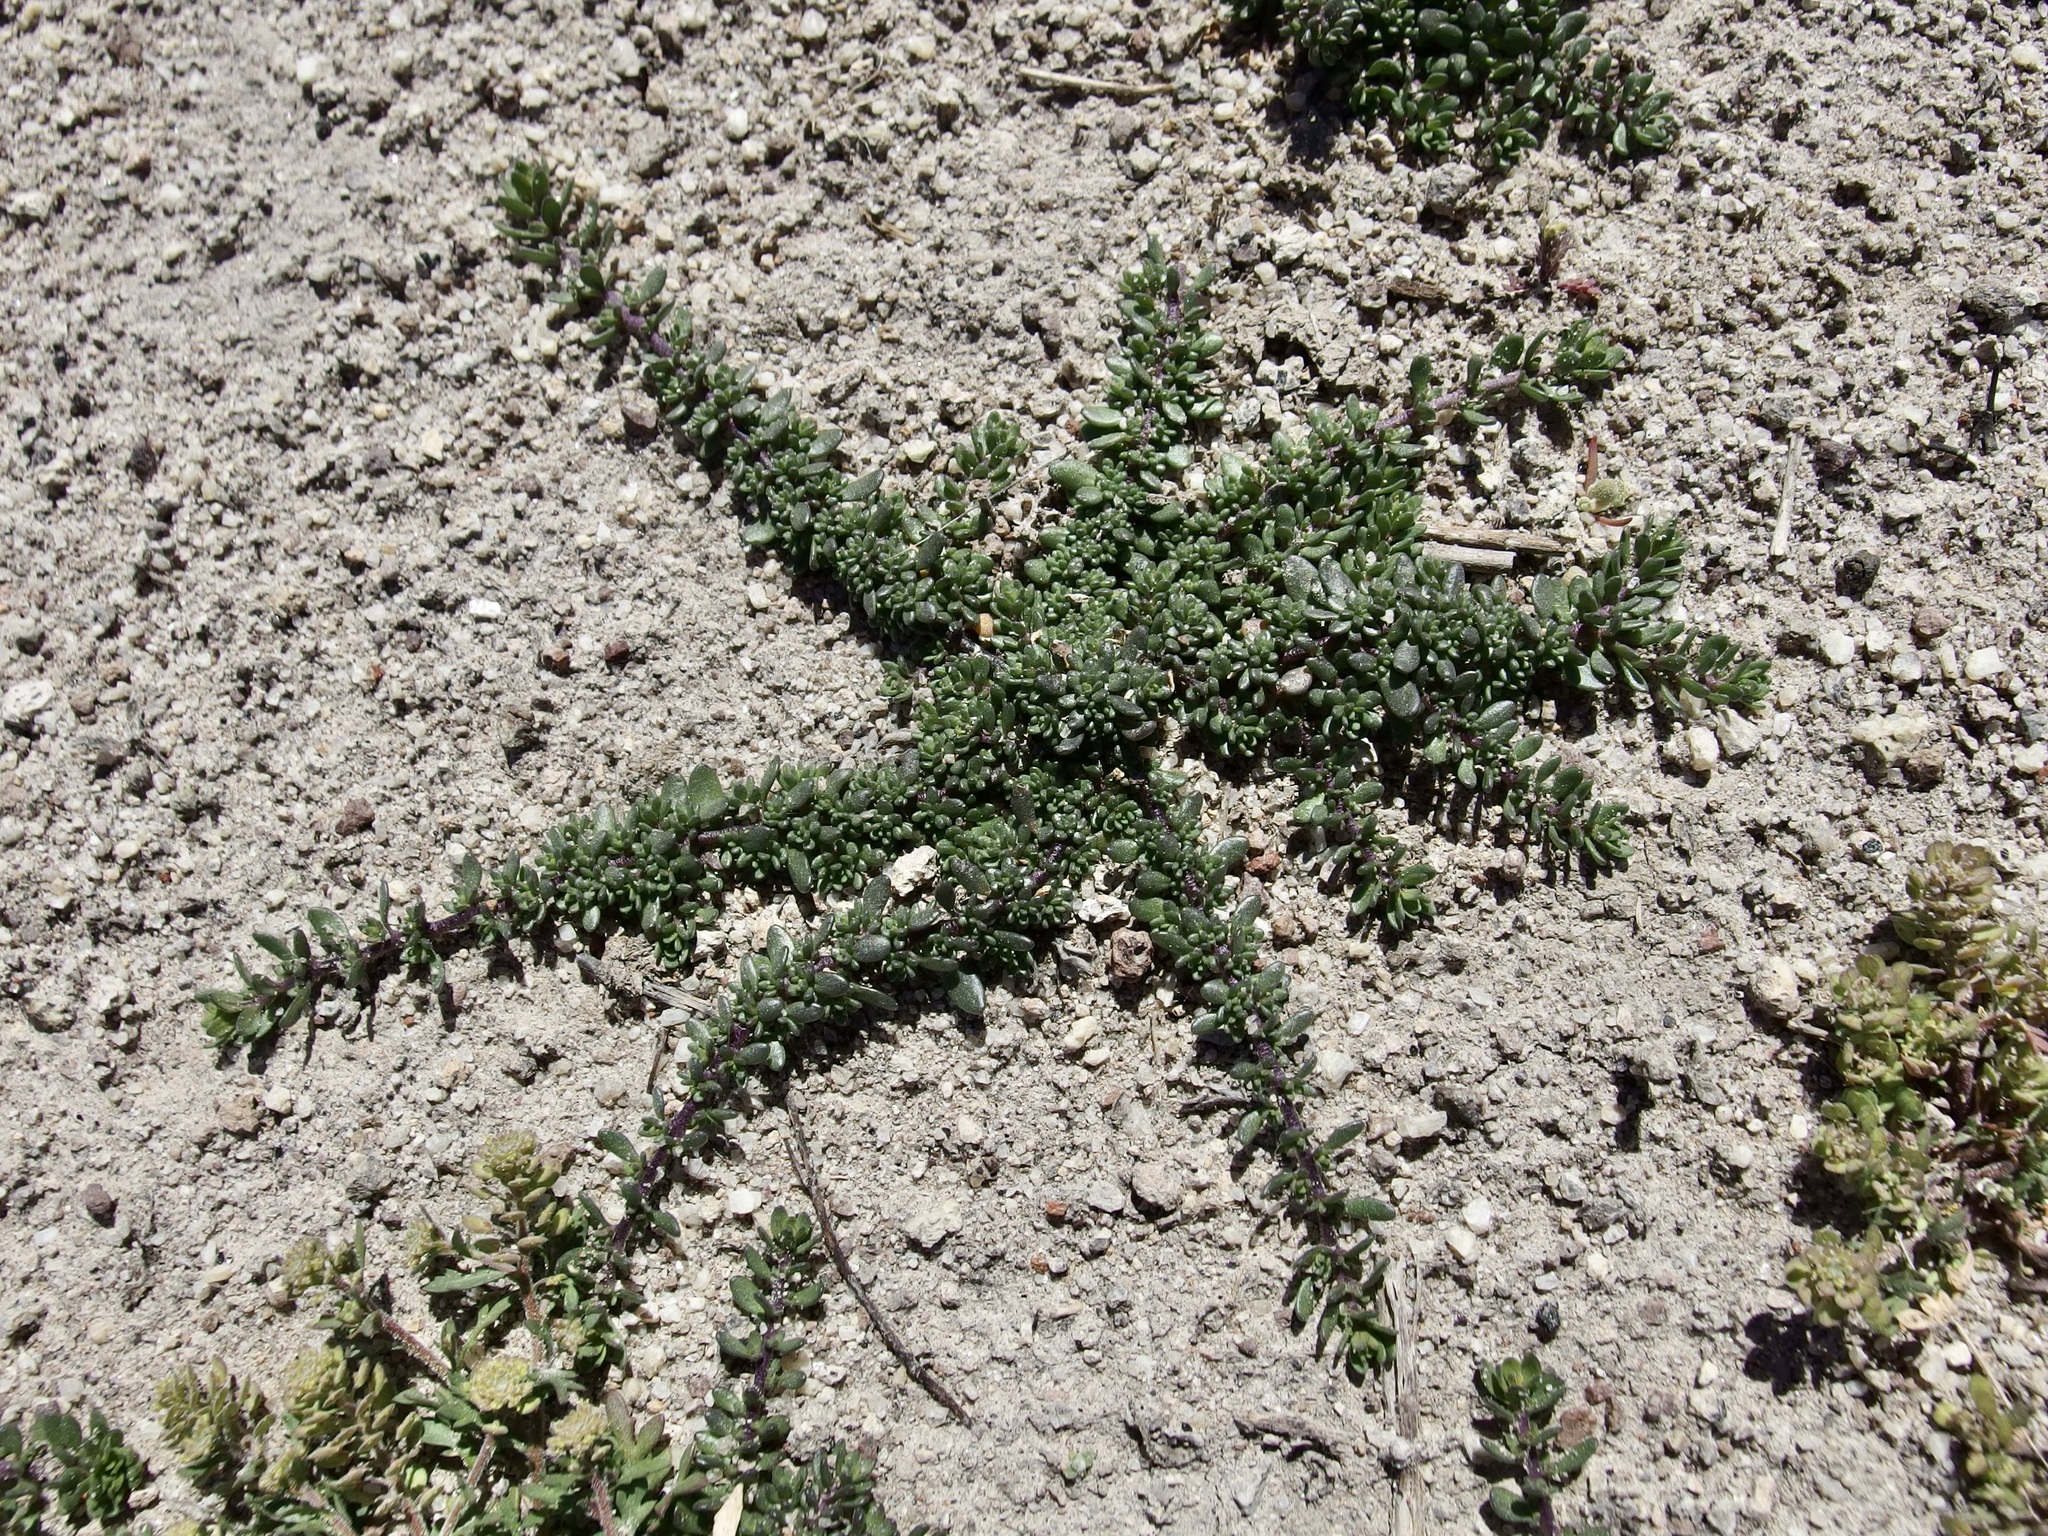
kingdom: Plantae
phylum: Tracheophyta
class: Magnoliopsida
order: Solanales
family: Solanaceae
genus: Calibrachoa
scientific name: Calibrachoa parviflora
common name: Seaside petunia
